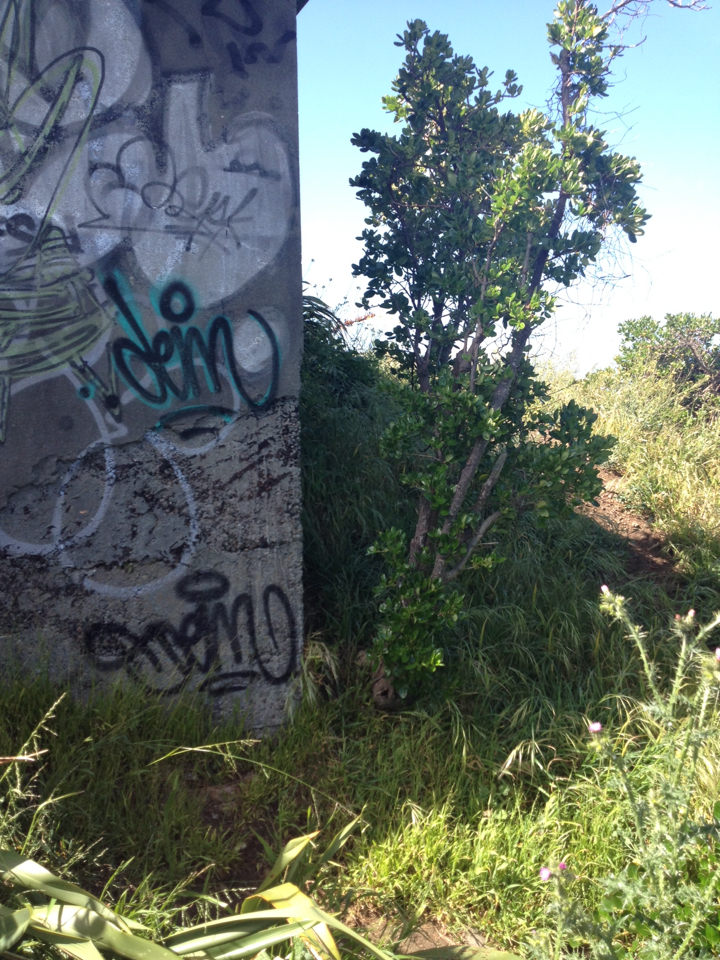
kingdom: Plantae
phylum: Tracheophyta
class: Magnoliopsida
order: Gentianales
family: Rubiaceae
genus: Coprosma
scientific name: Coprosma repens
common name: Tree bedstraw
